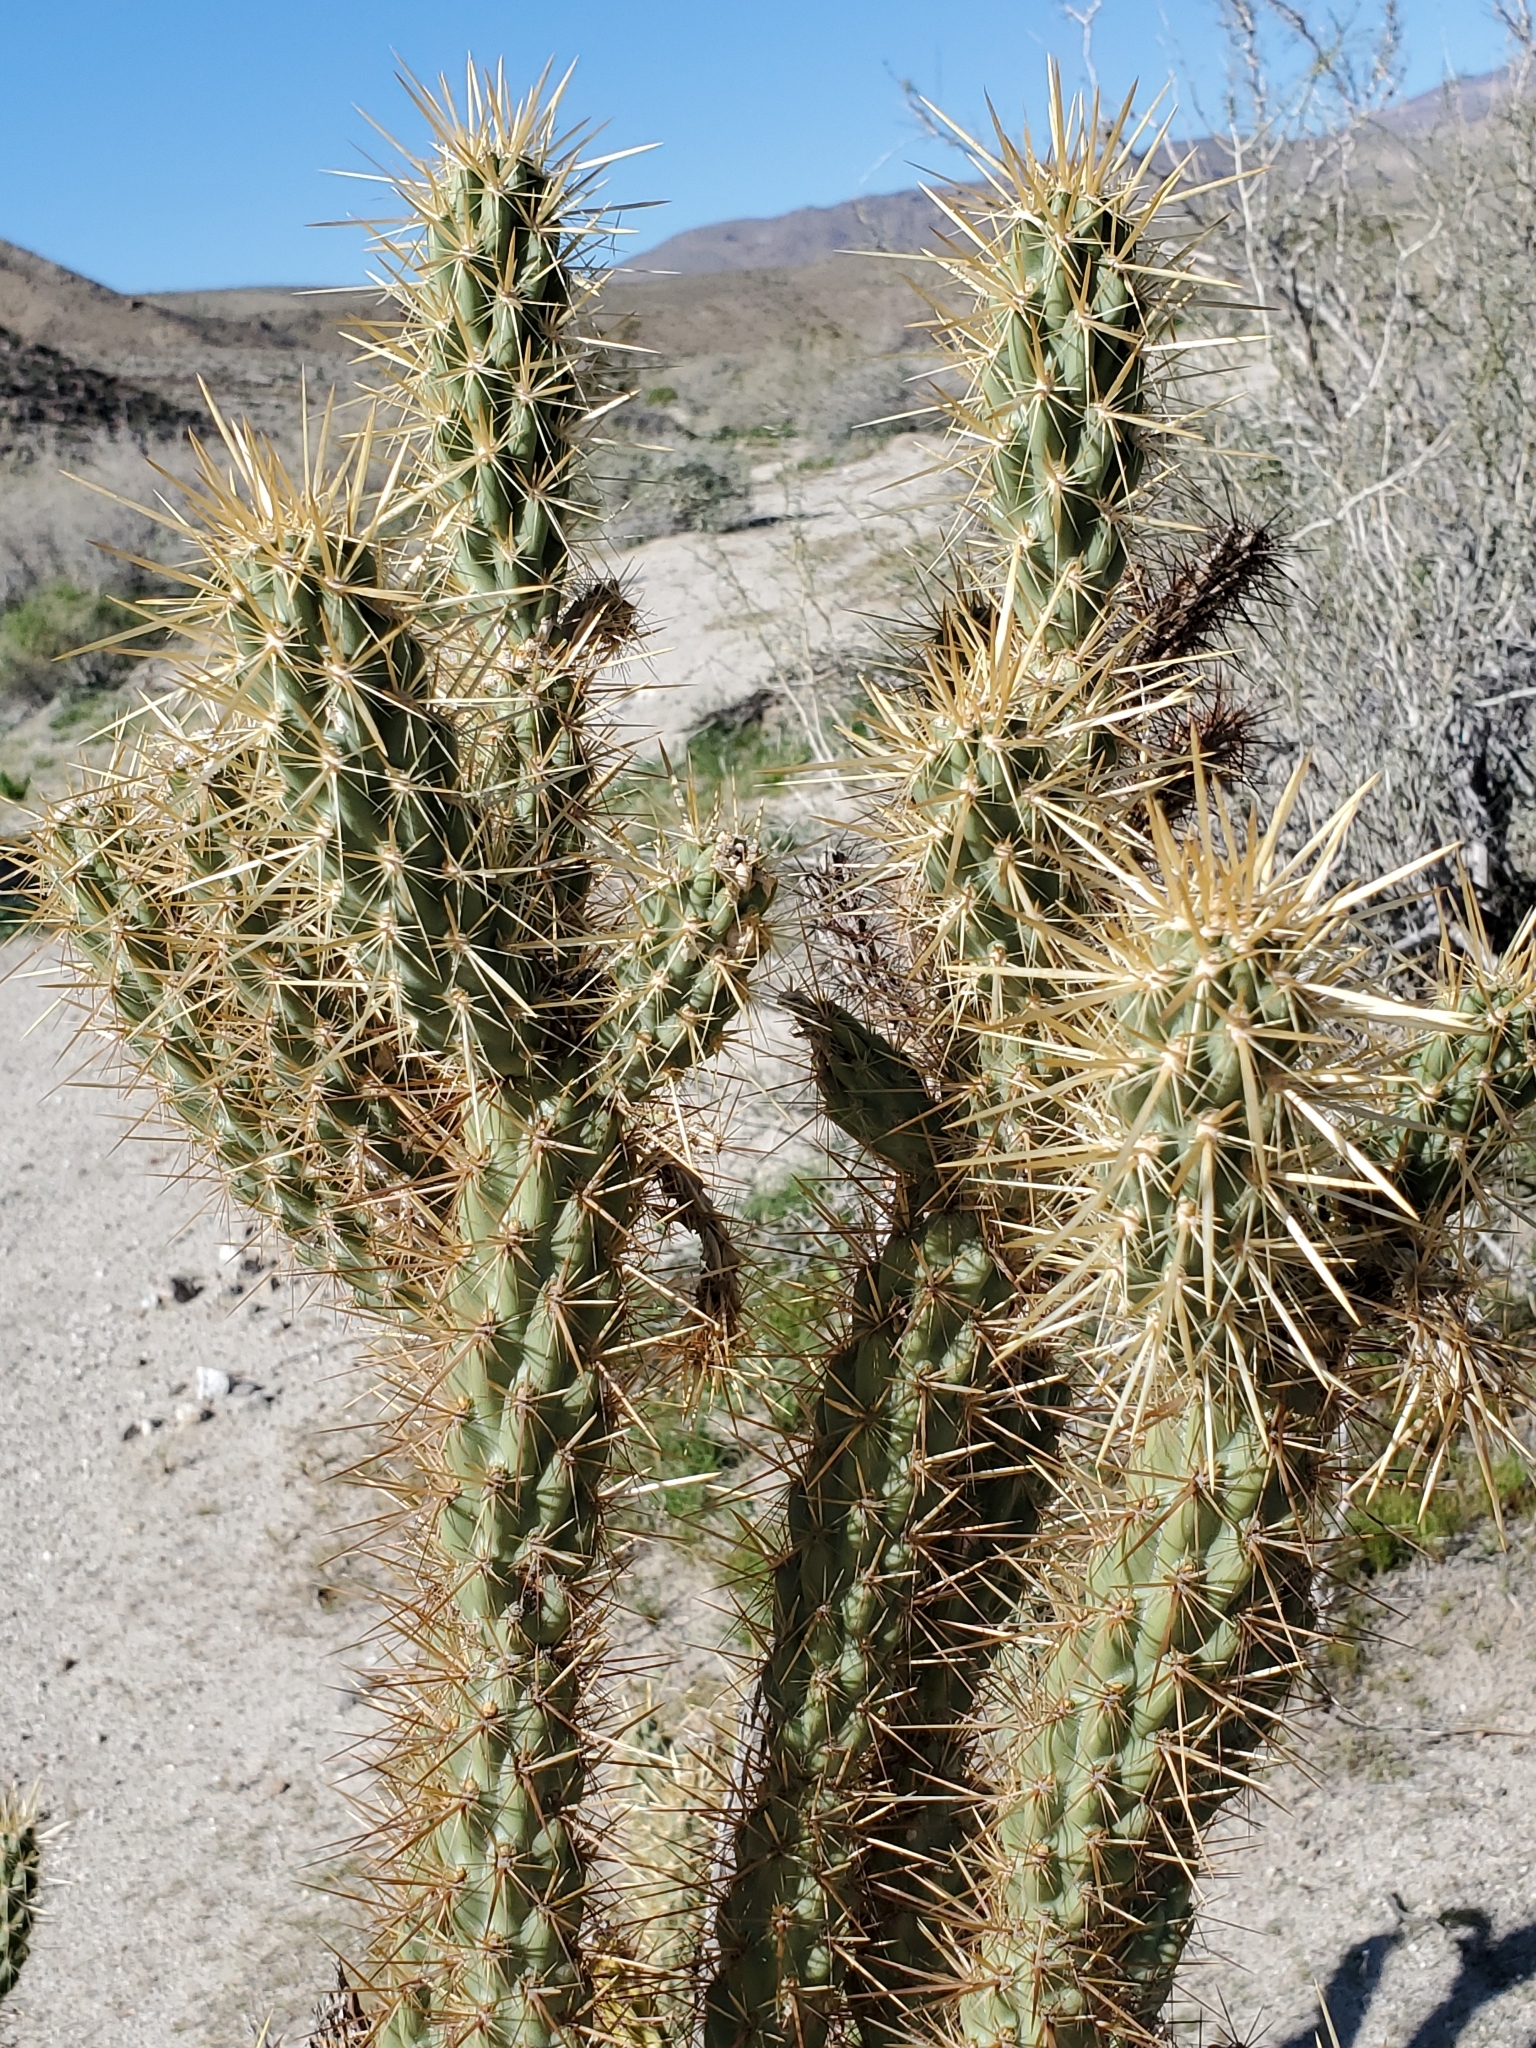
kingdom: Plantae
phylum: Tracheophyta
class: Magnoliopsida
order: Caryophyllales
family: Cactaceae
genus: Cylindropuntia
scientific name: Cylindropuntia ganderi
